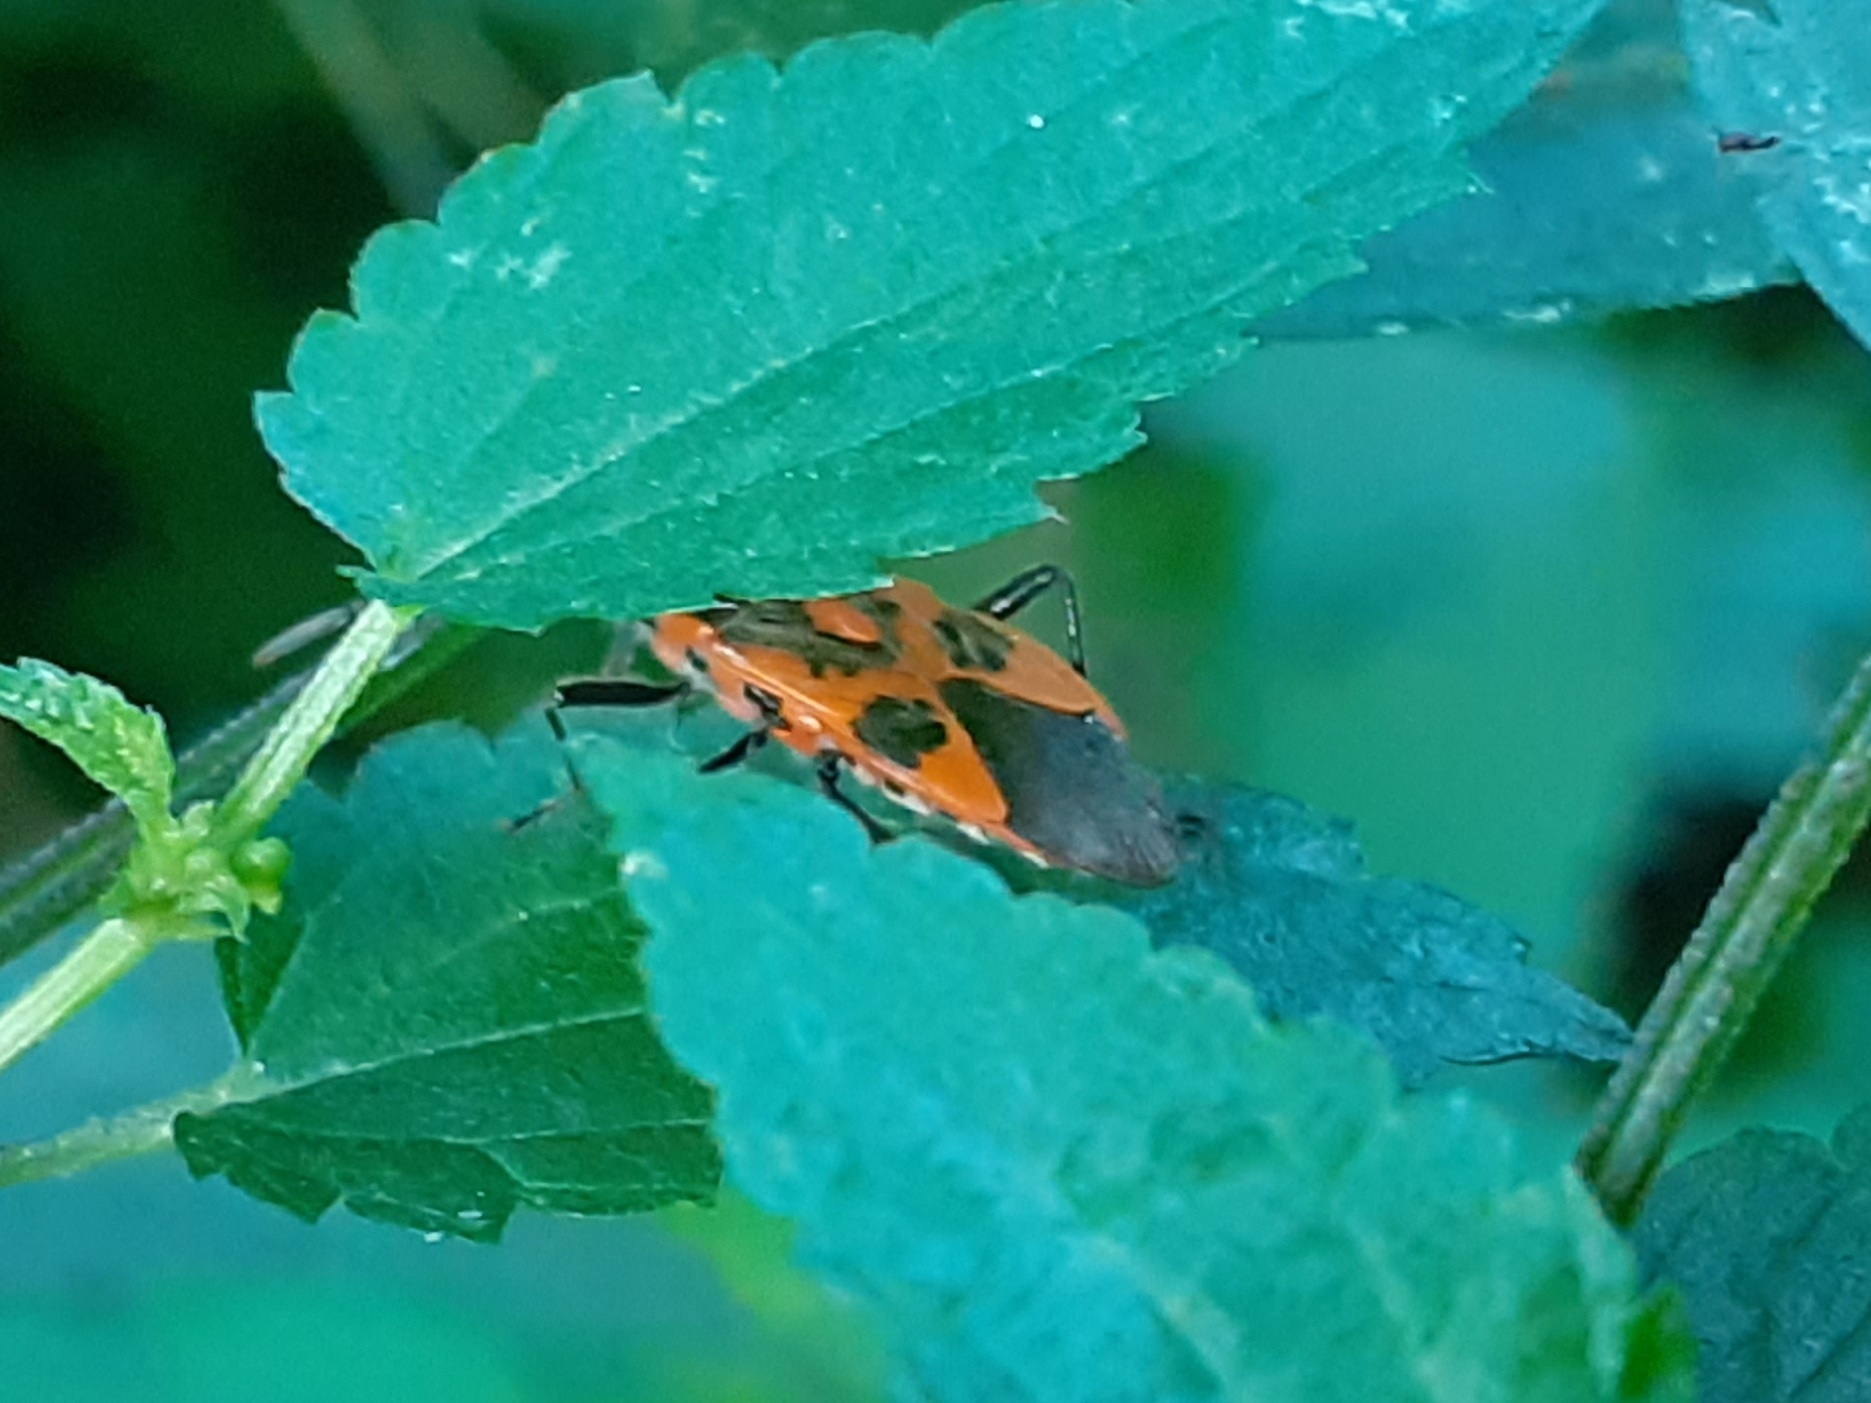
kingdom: Animalia
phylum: Arthropoda
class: Insecta
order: Hemiptera
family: Rhopalidae
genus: Corizus
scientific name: Corizus hyoscyami
